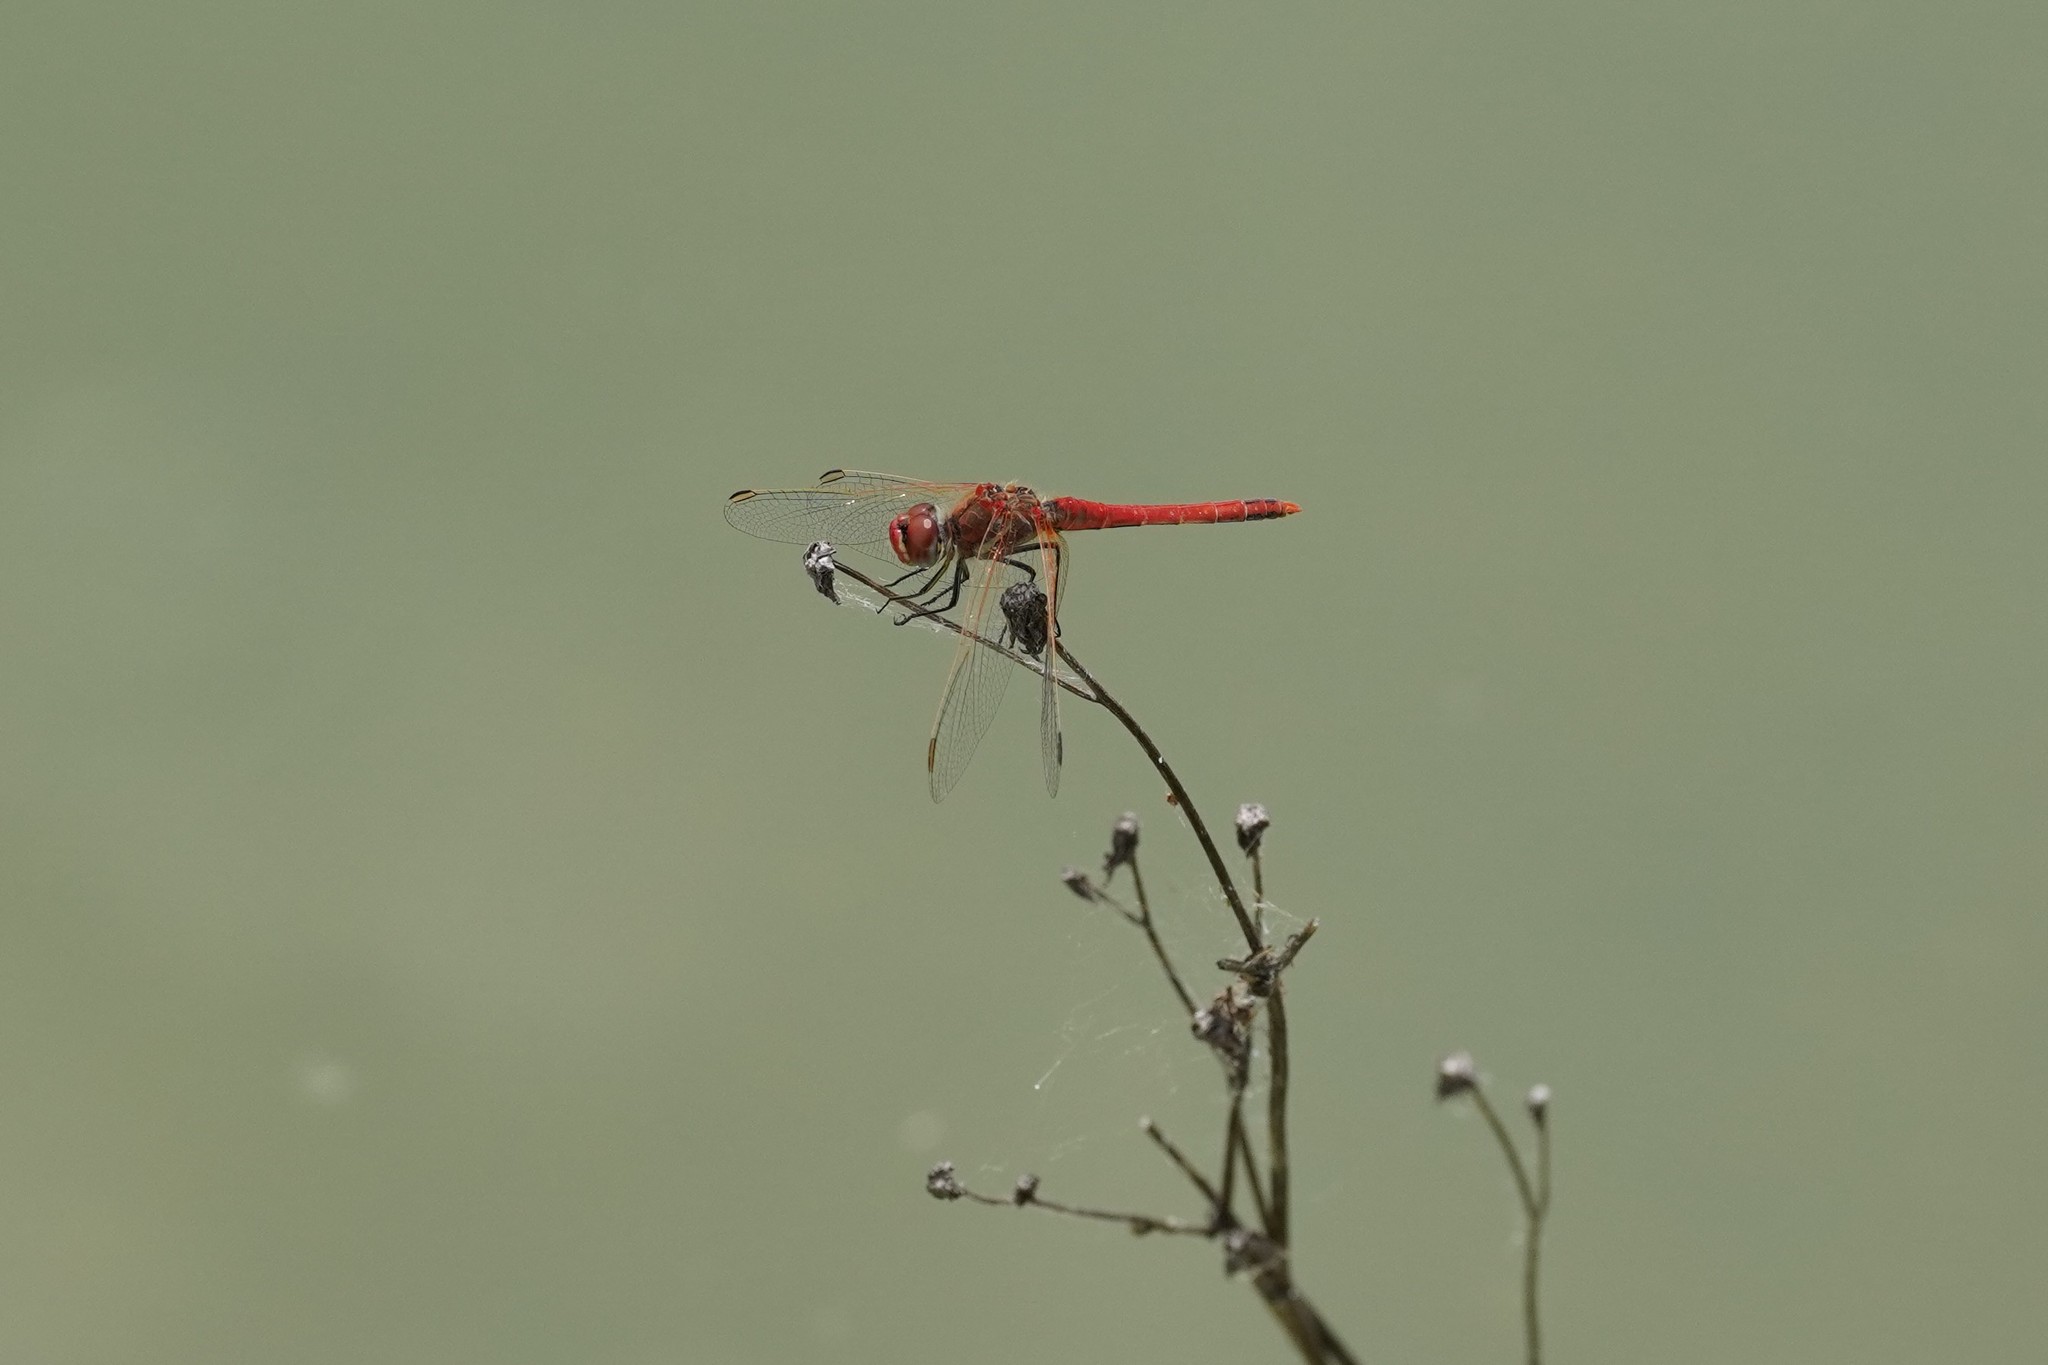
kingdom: Animalia
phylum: Arthropoda
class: Insecta
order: Odonata
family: Libellulidae
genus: Sympetrum
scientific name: Sympetrum fonscolombii
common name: Red-veined darter
